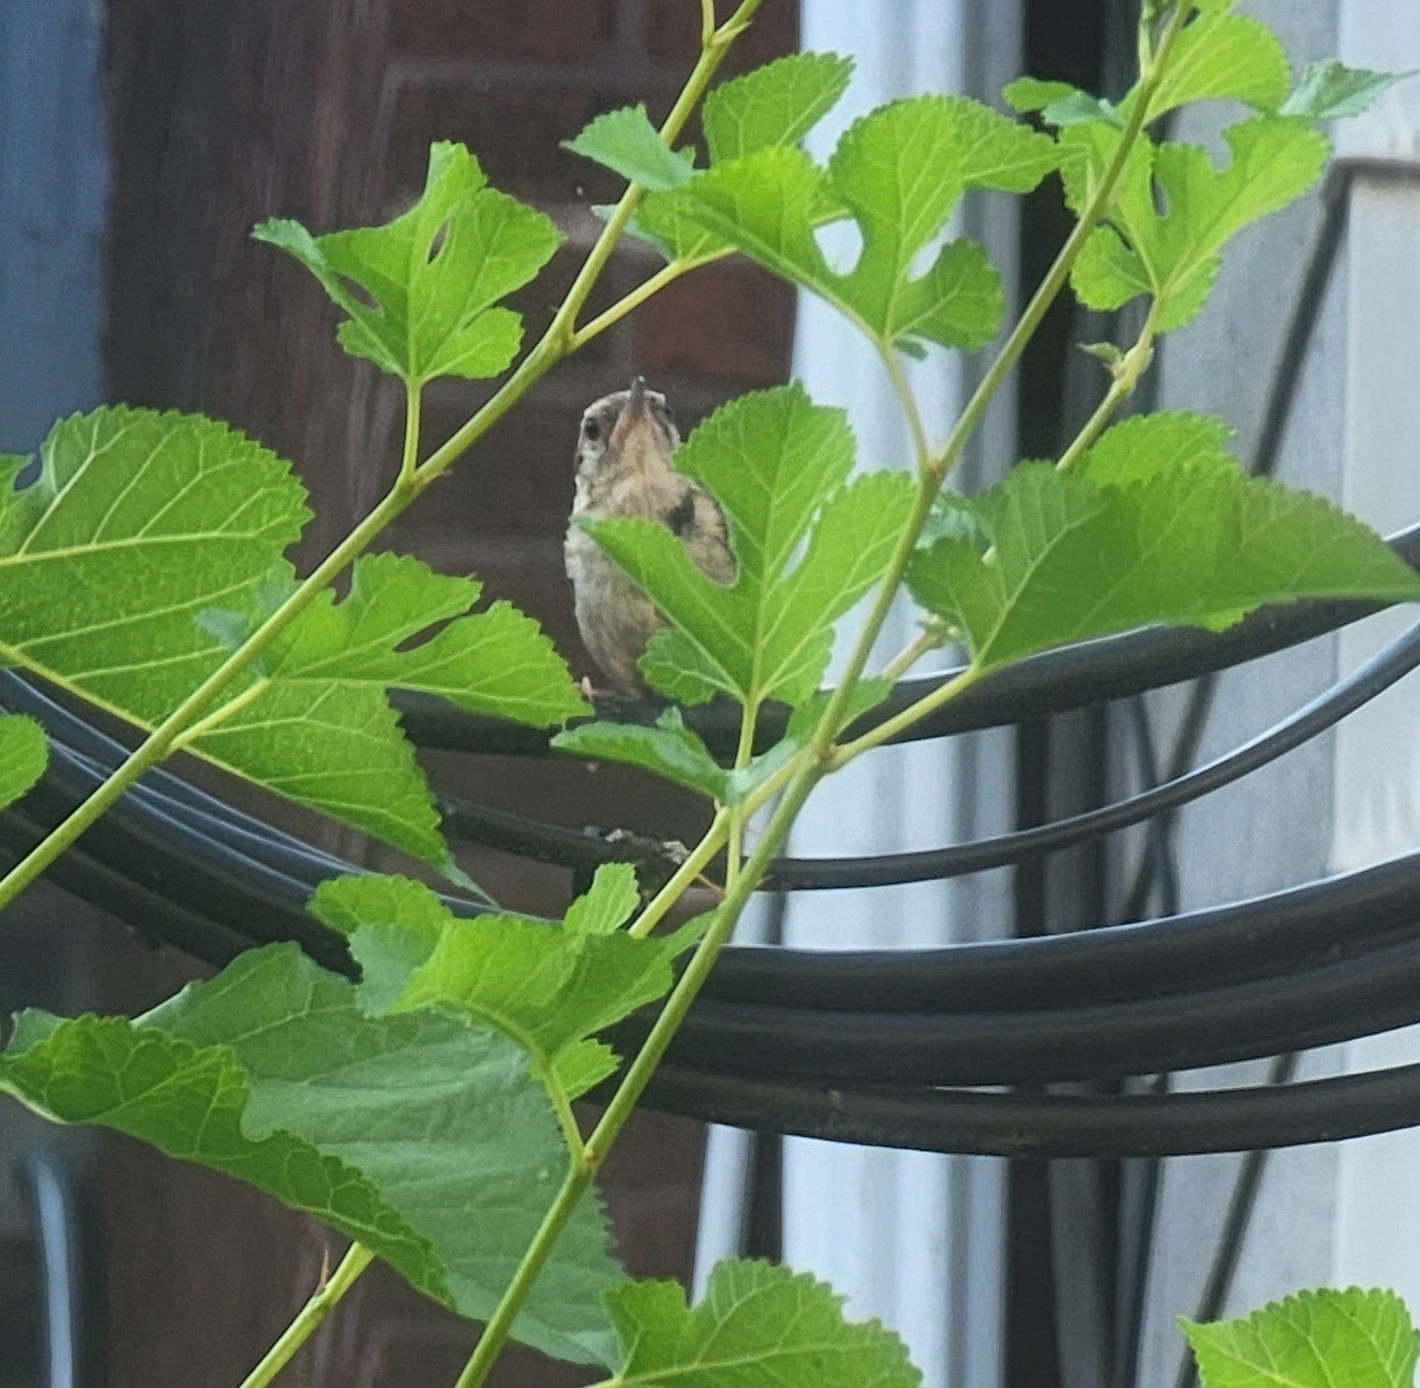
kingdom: Animalia
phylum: Chordata
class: Aves
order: Passeriformes
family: Troglodytidae
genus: Thryothorus
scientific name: Thryothorus ludovicianus
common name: Carolina wren
